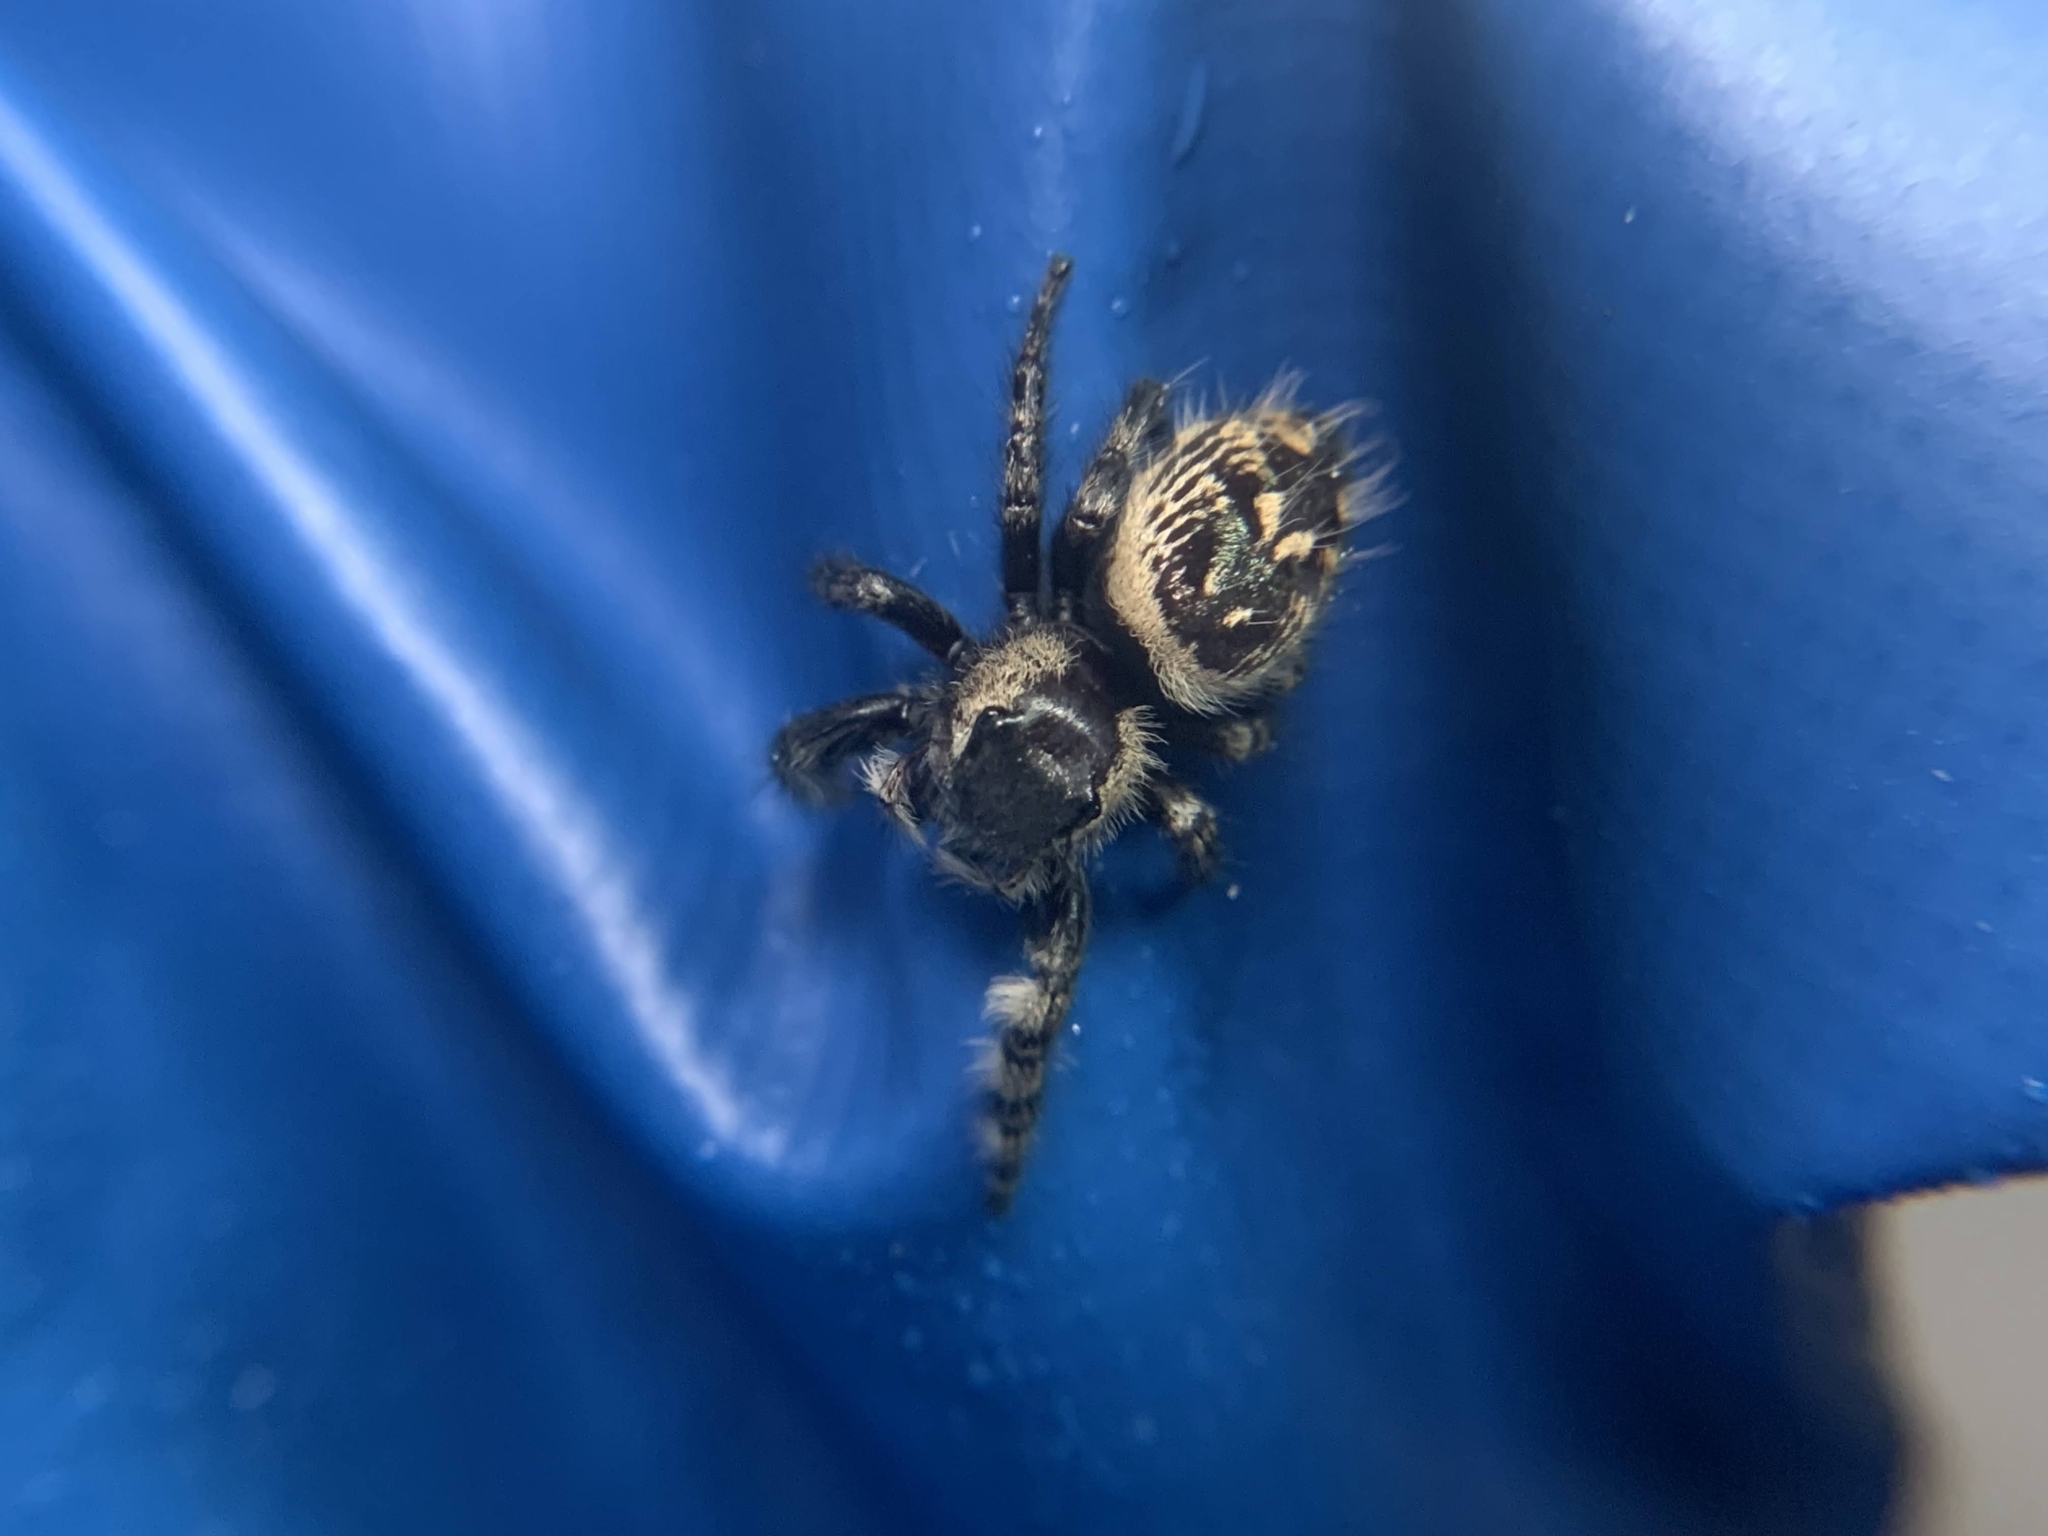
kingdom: Animalia
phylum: Arthropoda
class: Arachnida
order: Araneae
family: Salticidae
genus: Phidippus
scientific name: Phidippus otiosus
